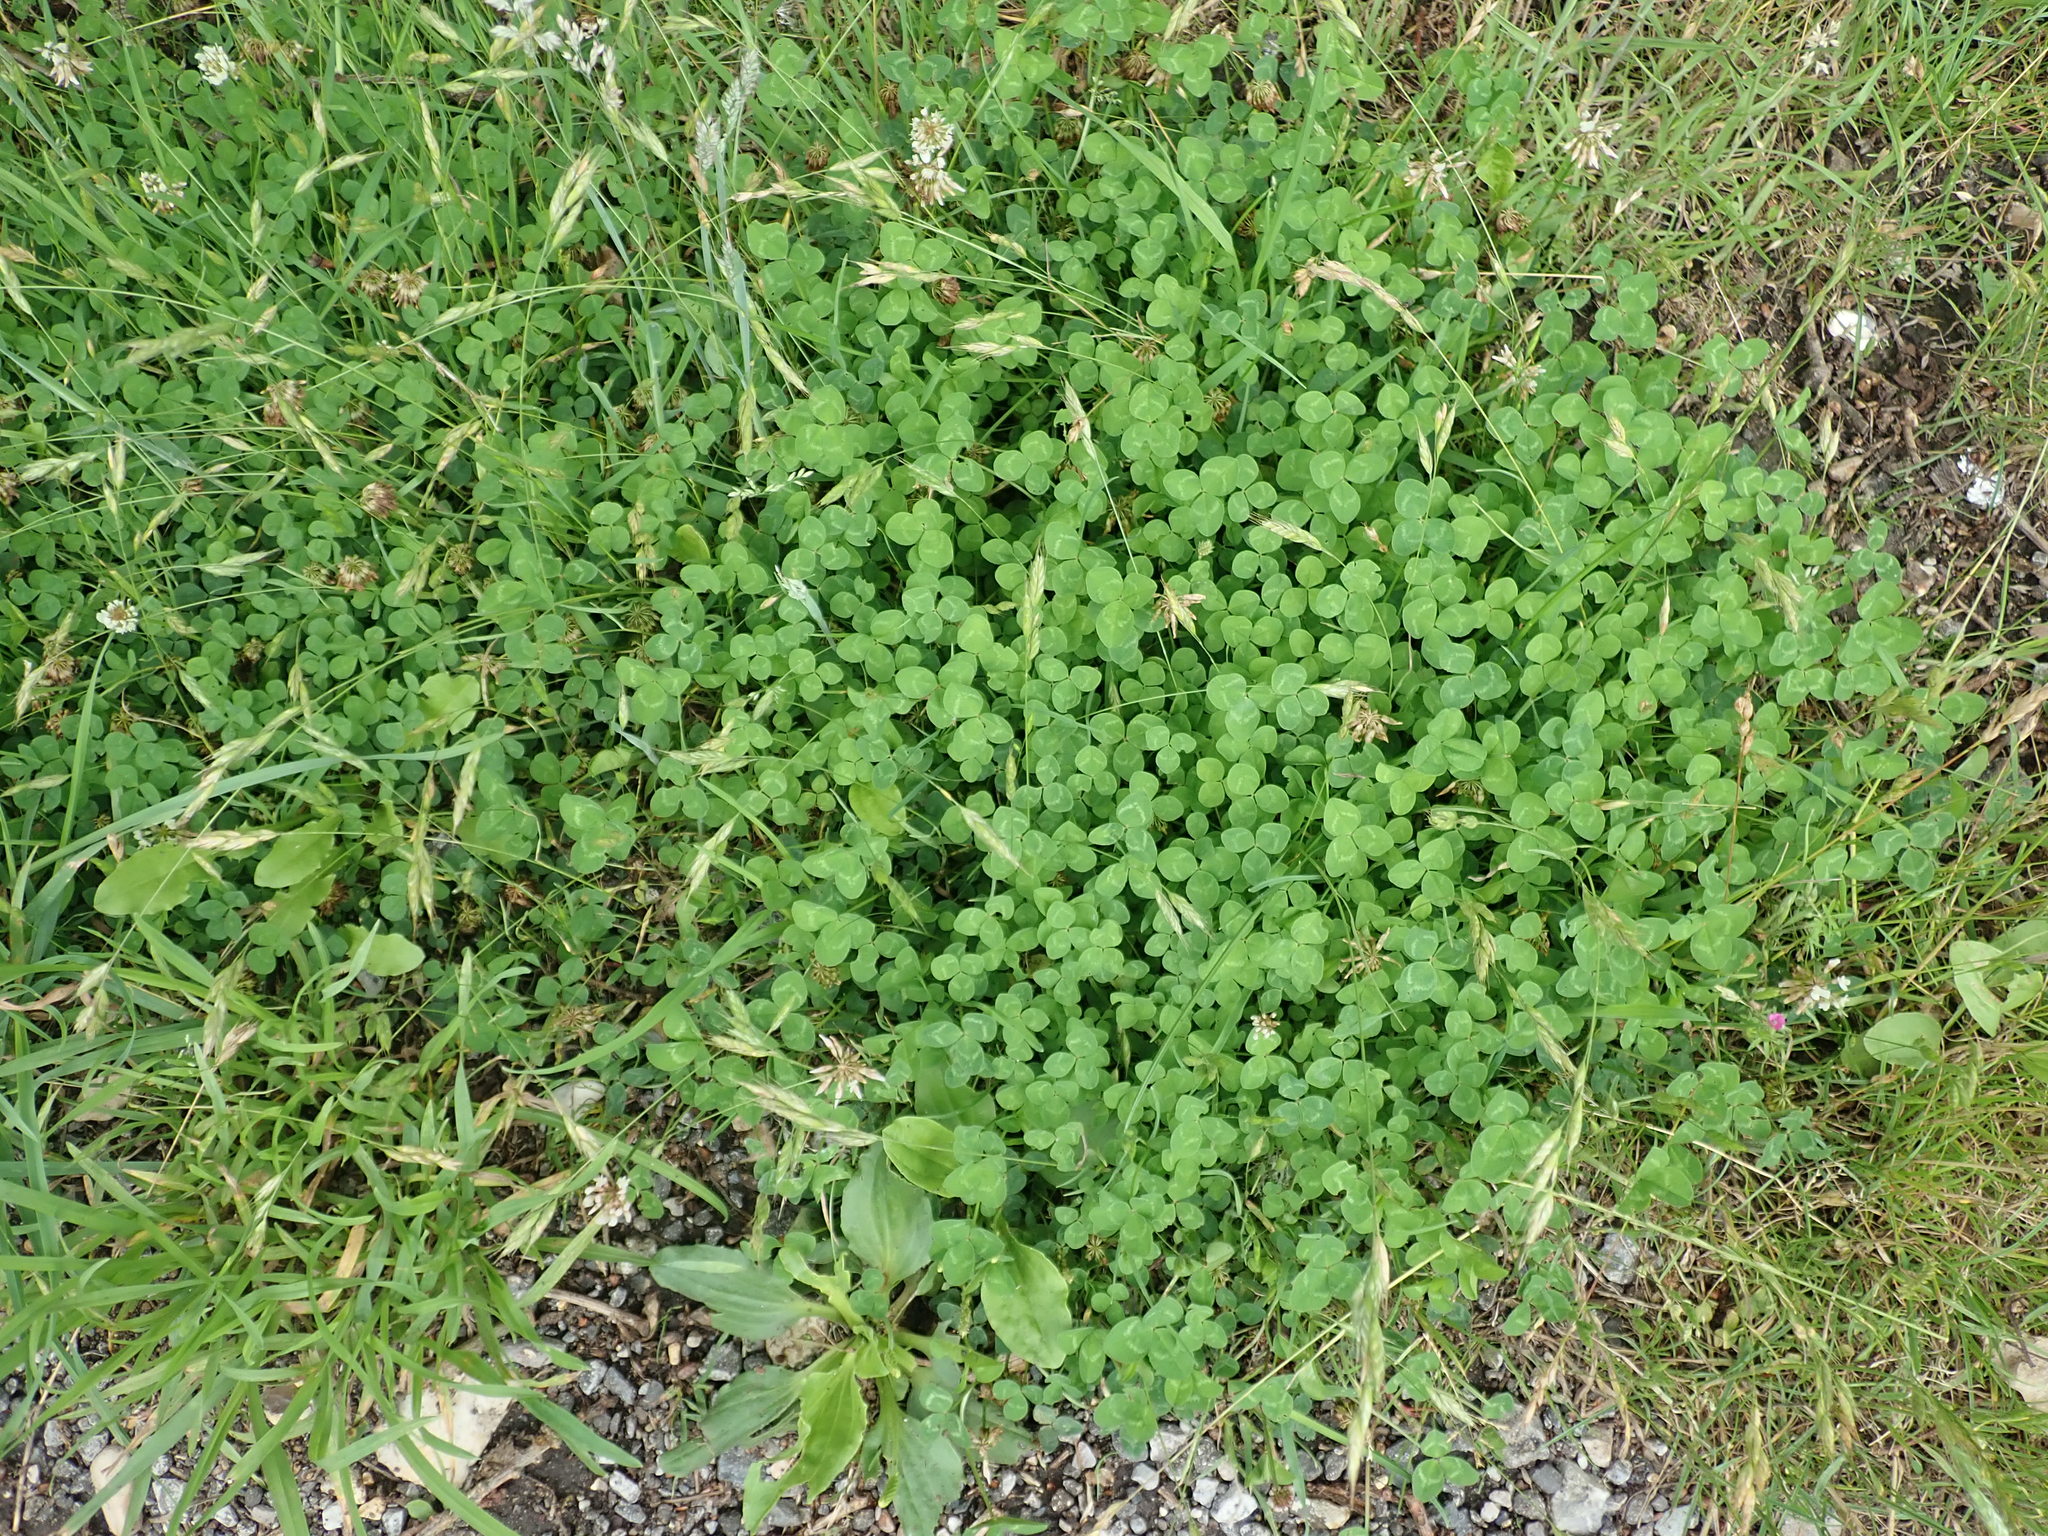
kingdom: Plantae
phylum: Tracheophyta
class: Magnoliopsida
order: Fabales
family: Fabaceae
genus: Trifolium
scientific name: Trifolium repens
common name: White clover
